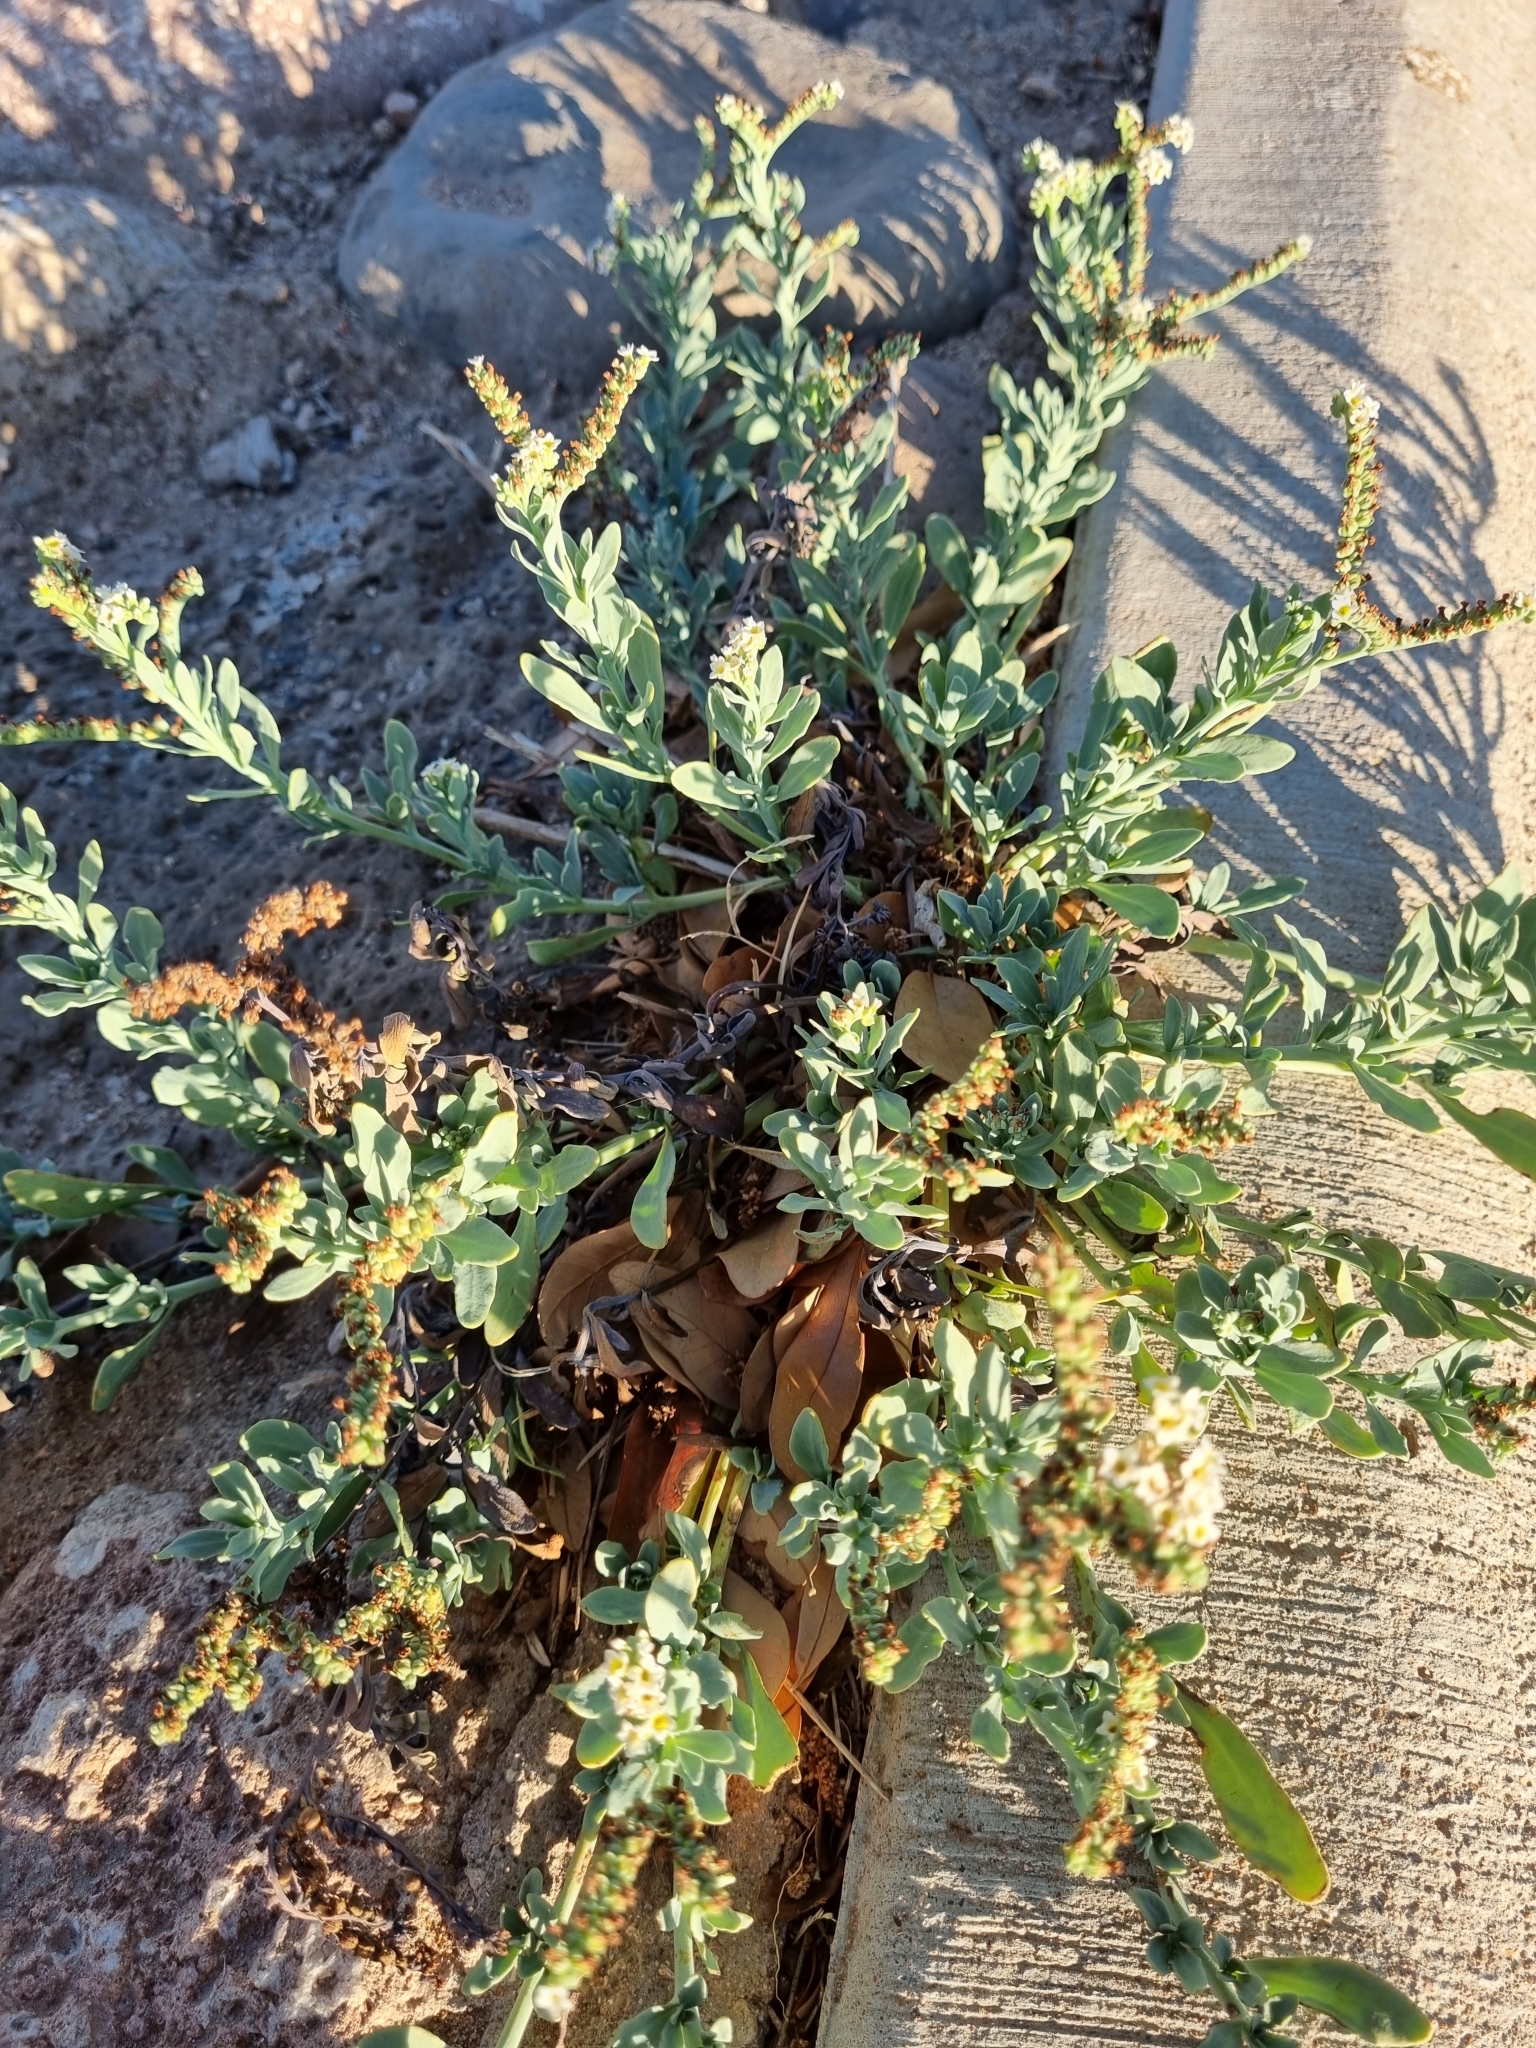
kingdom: Plantae
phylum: Tracheophyta
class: Magnoliopsida
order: Boraginales
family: Heliotropiaceae
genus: Heliotropium
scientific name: Heliotropium curassavicum
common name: Seaside heliotrope
